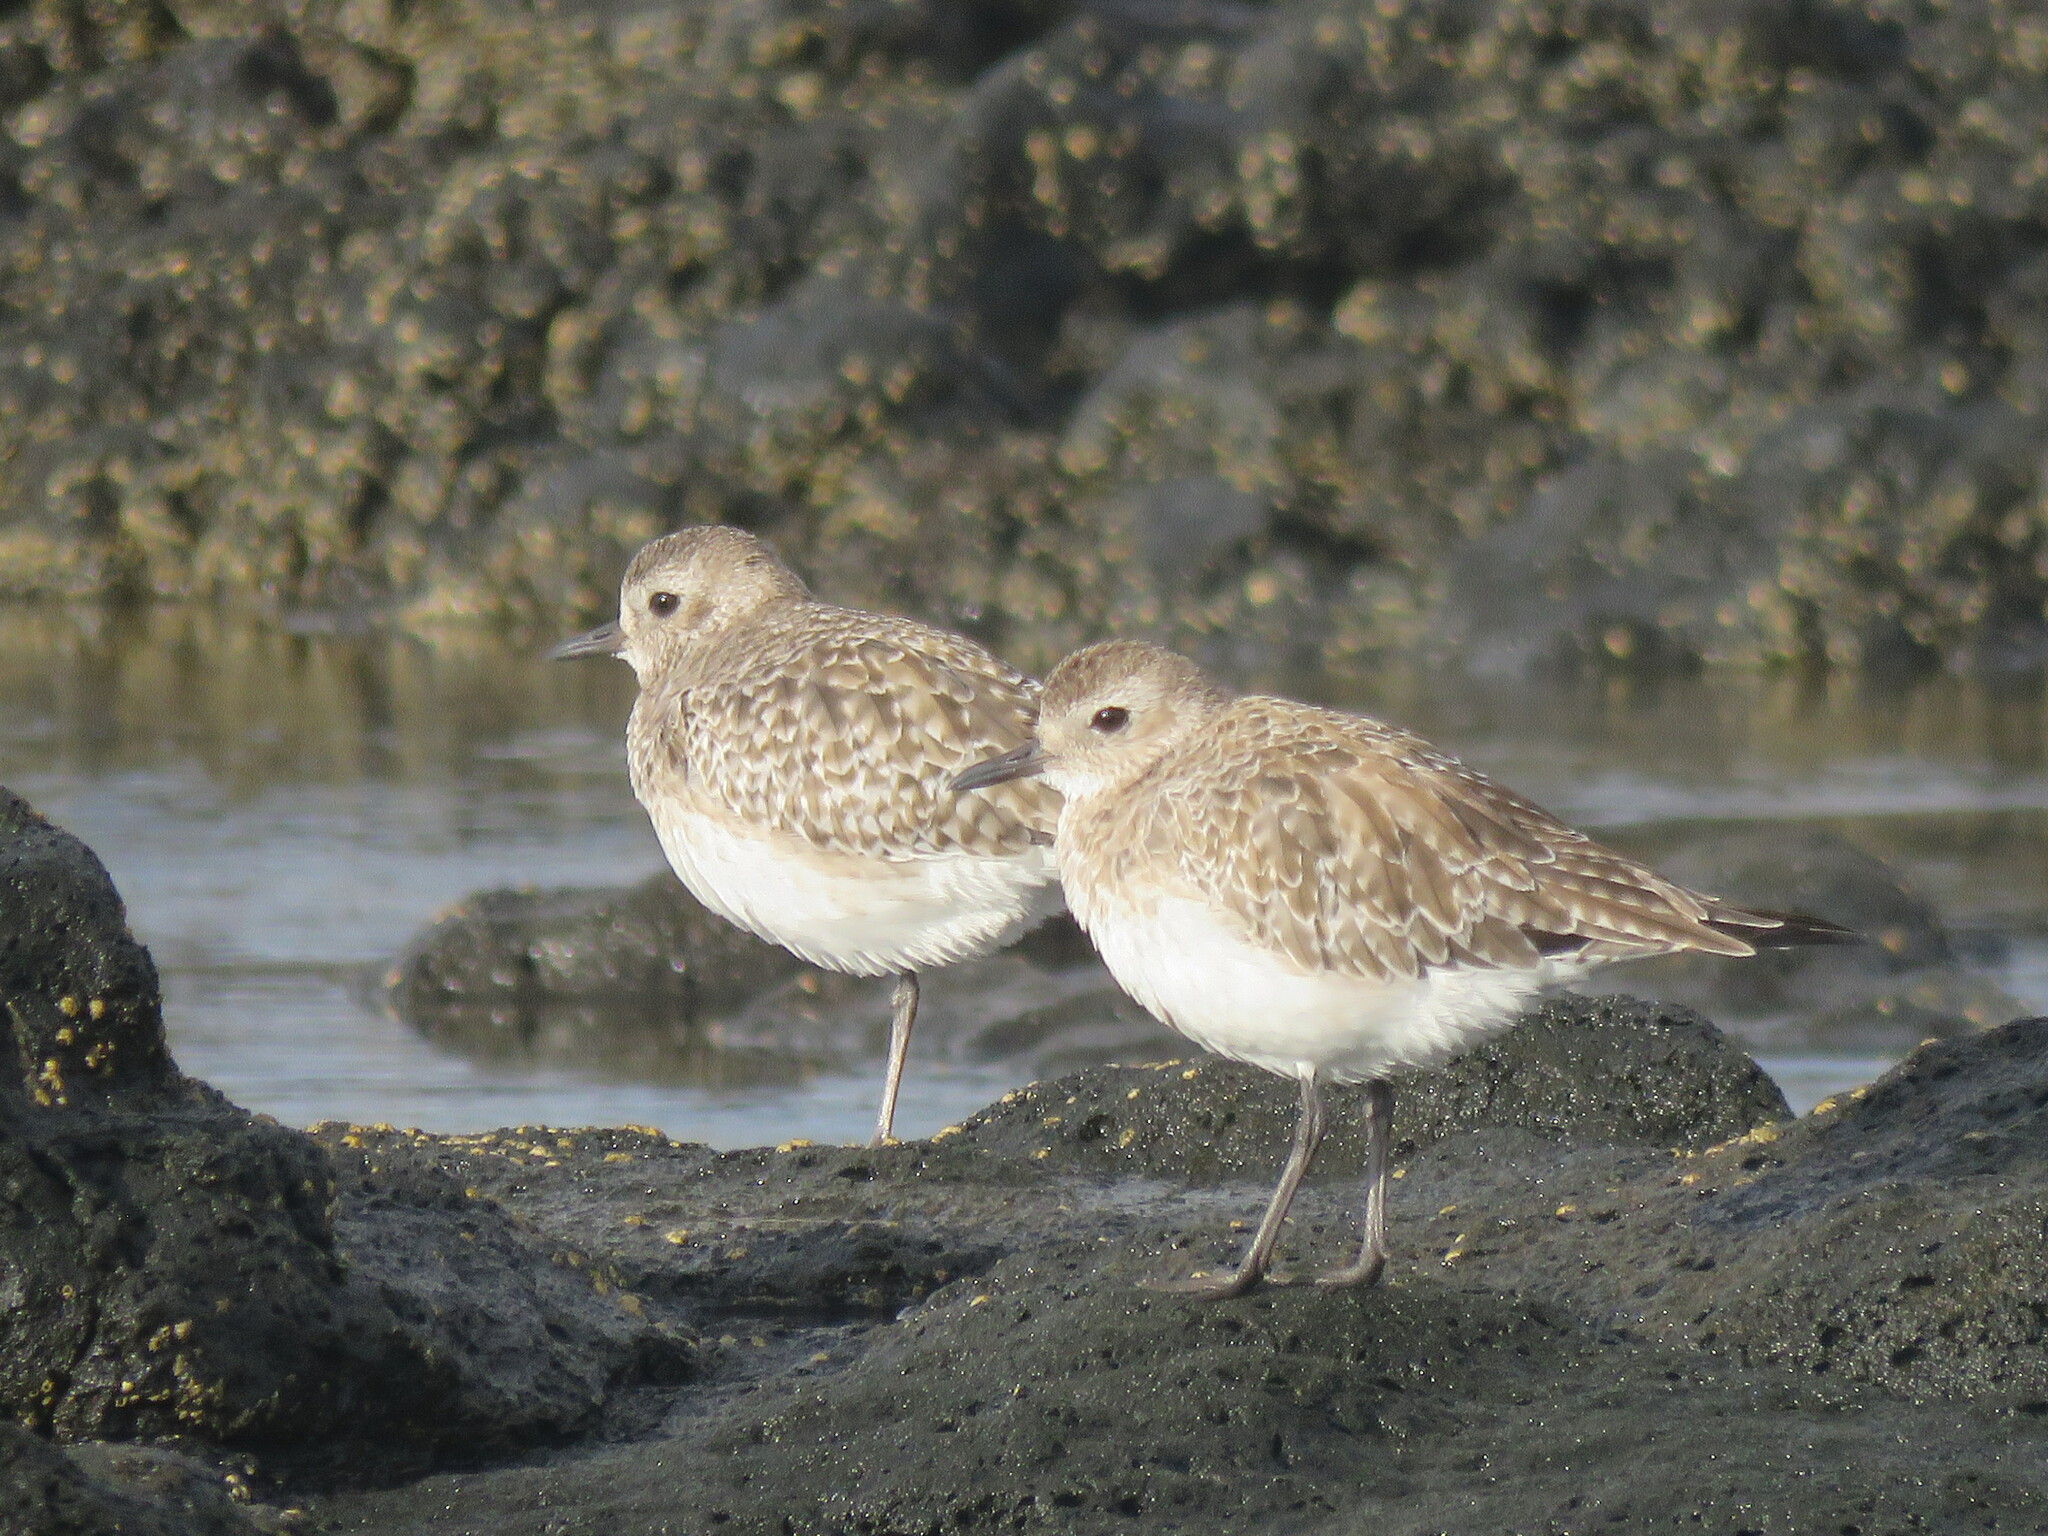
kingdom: Animalia
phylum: Chordata
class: Aves
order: Charadriiformes
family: Charadriidae
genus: Pluvialis
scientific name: Pluvialis squatarola
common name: Grey plover
